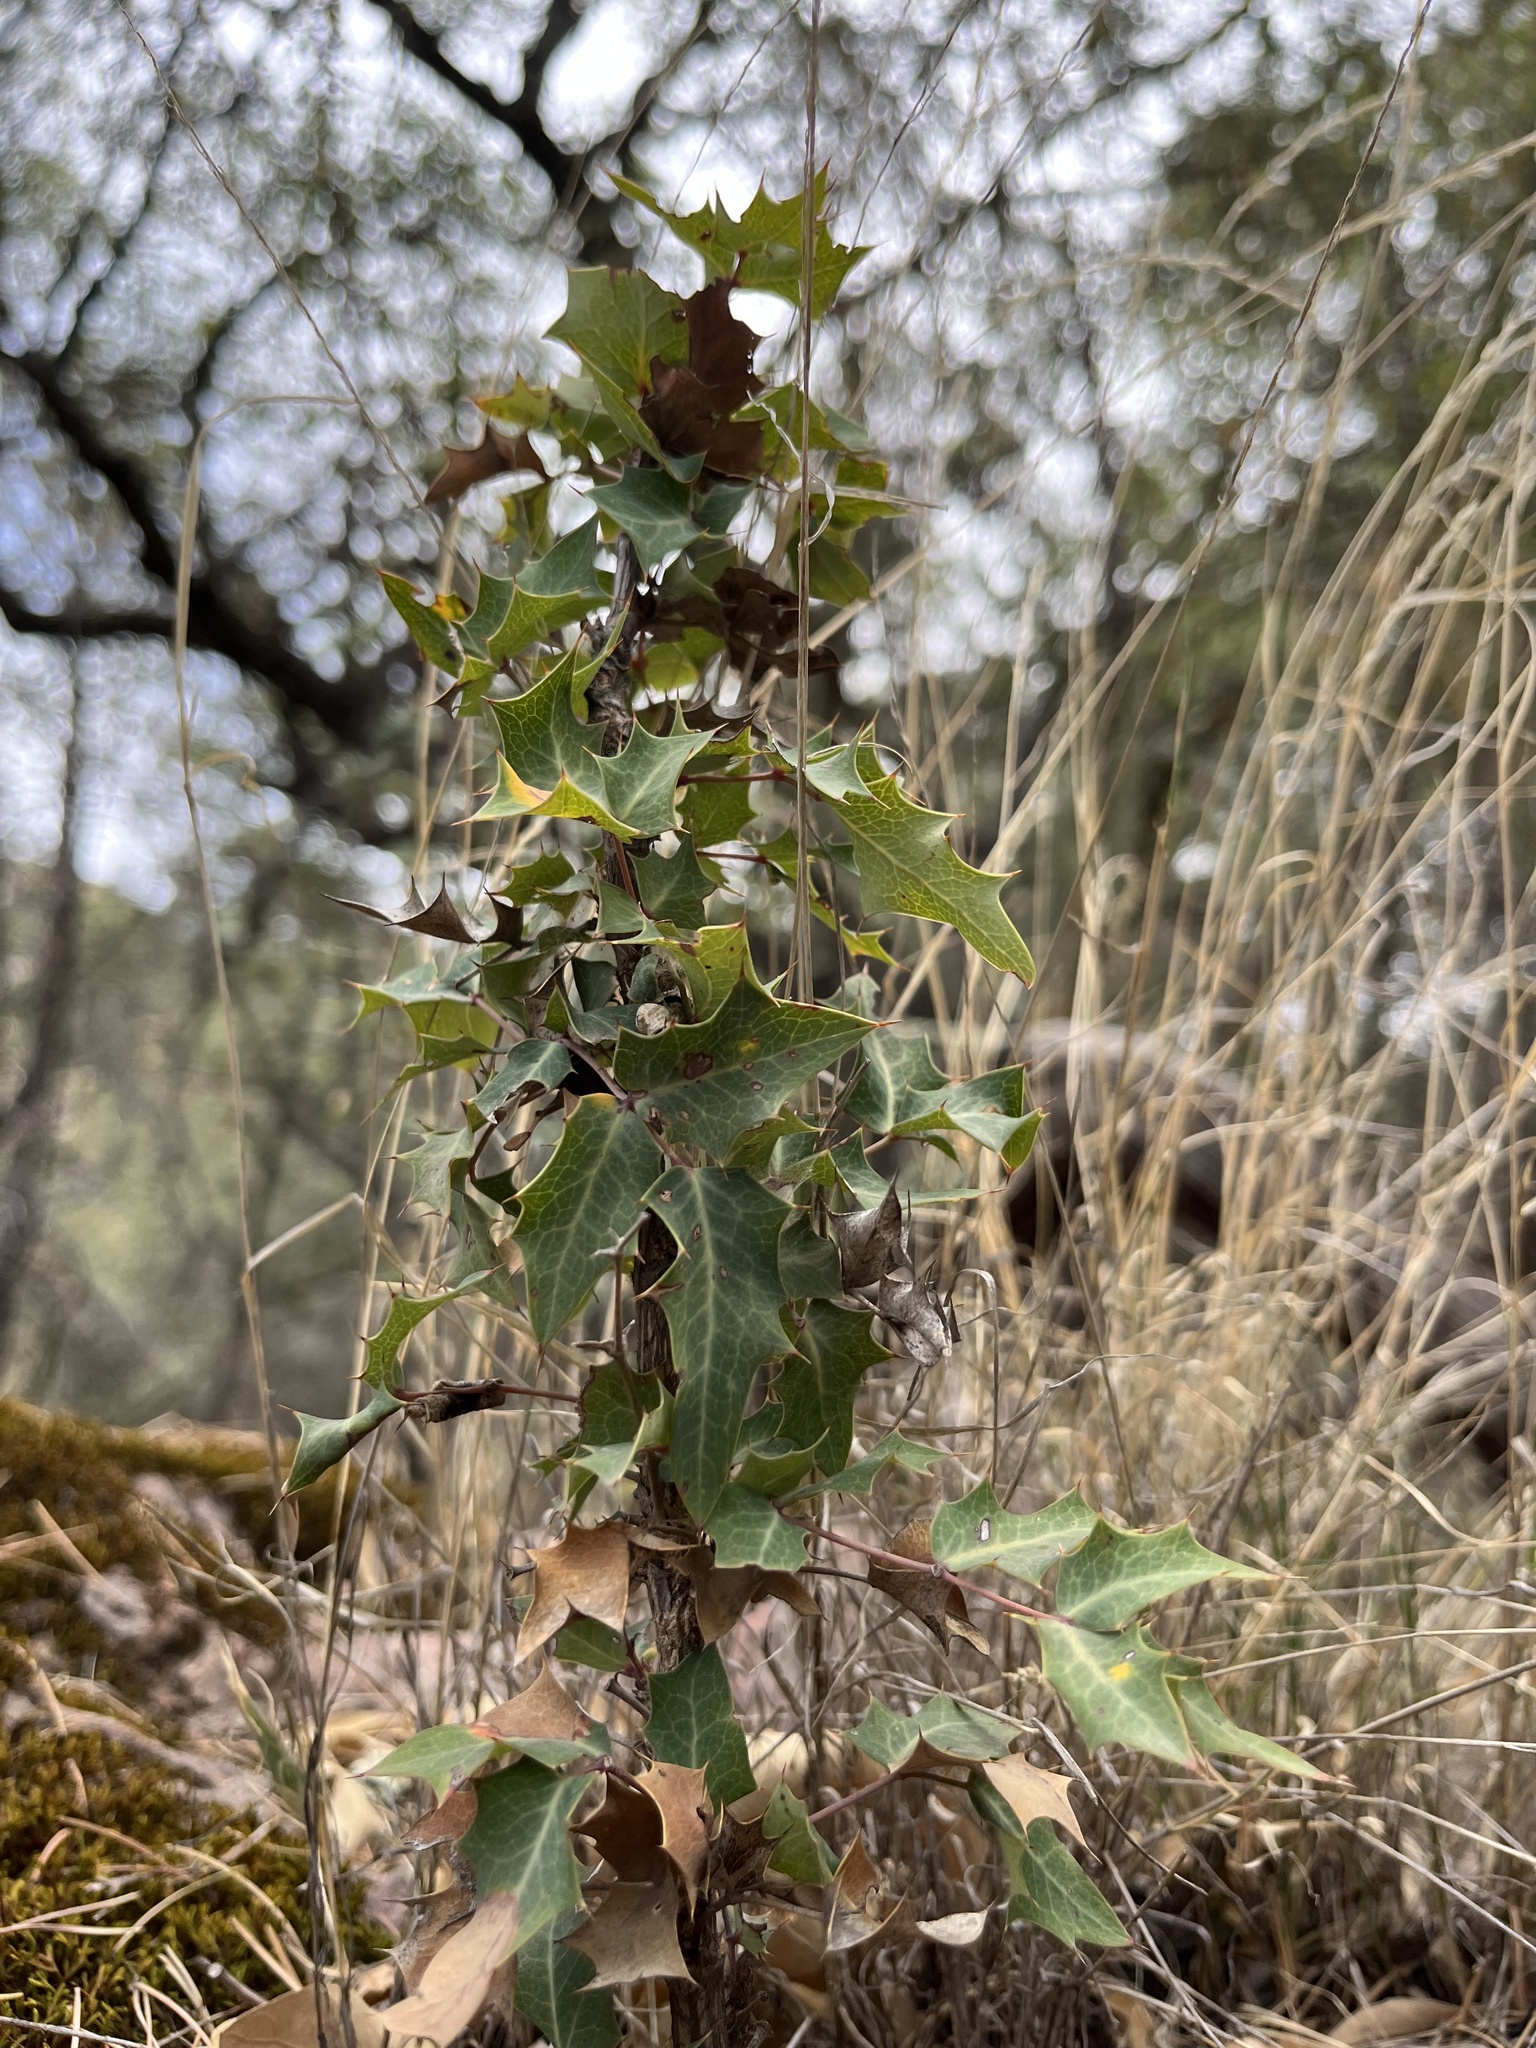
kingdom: Plantae
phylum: Tracheophyta
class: Magnoliopsida
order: Ranunculales
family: Berberidaceae
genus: Alloberberis
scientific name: Alloberberis haematocarpa
